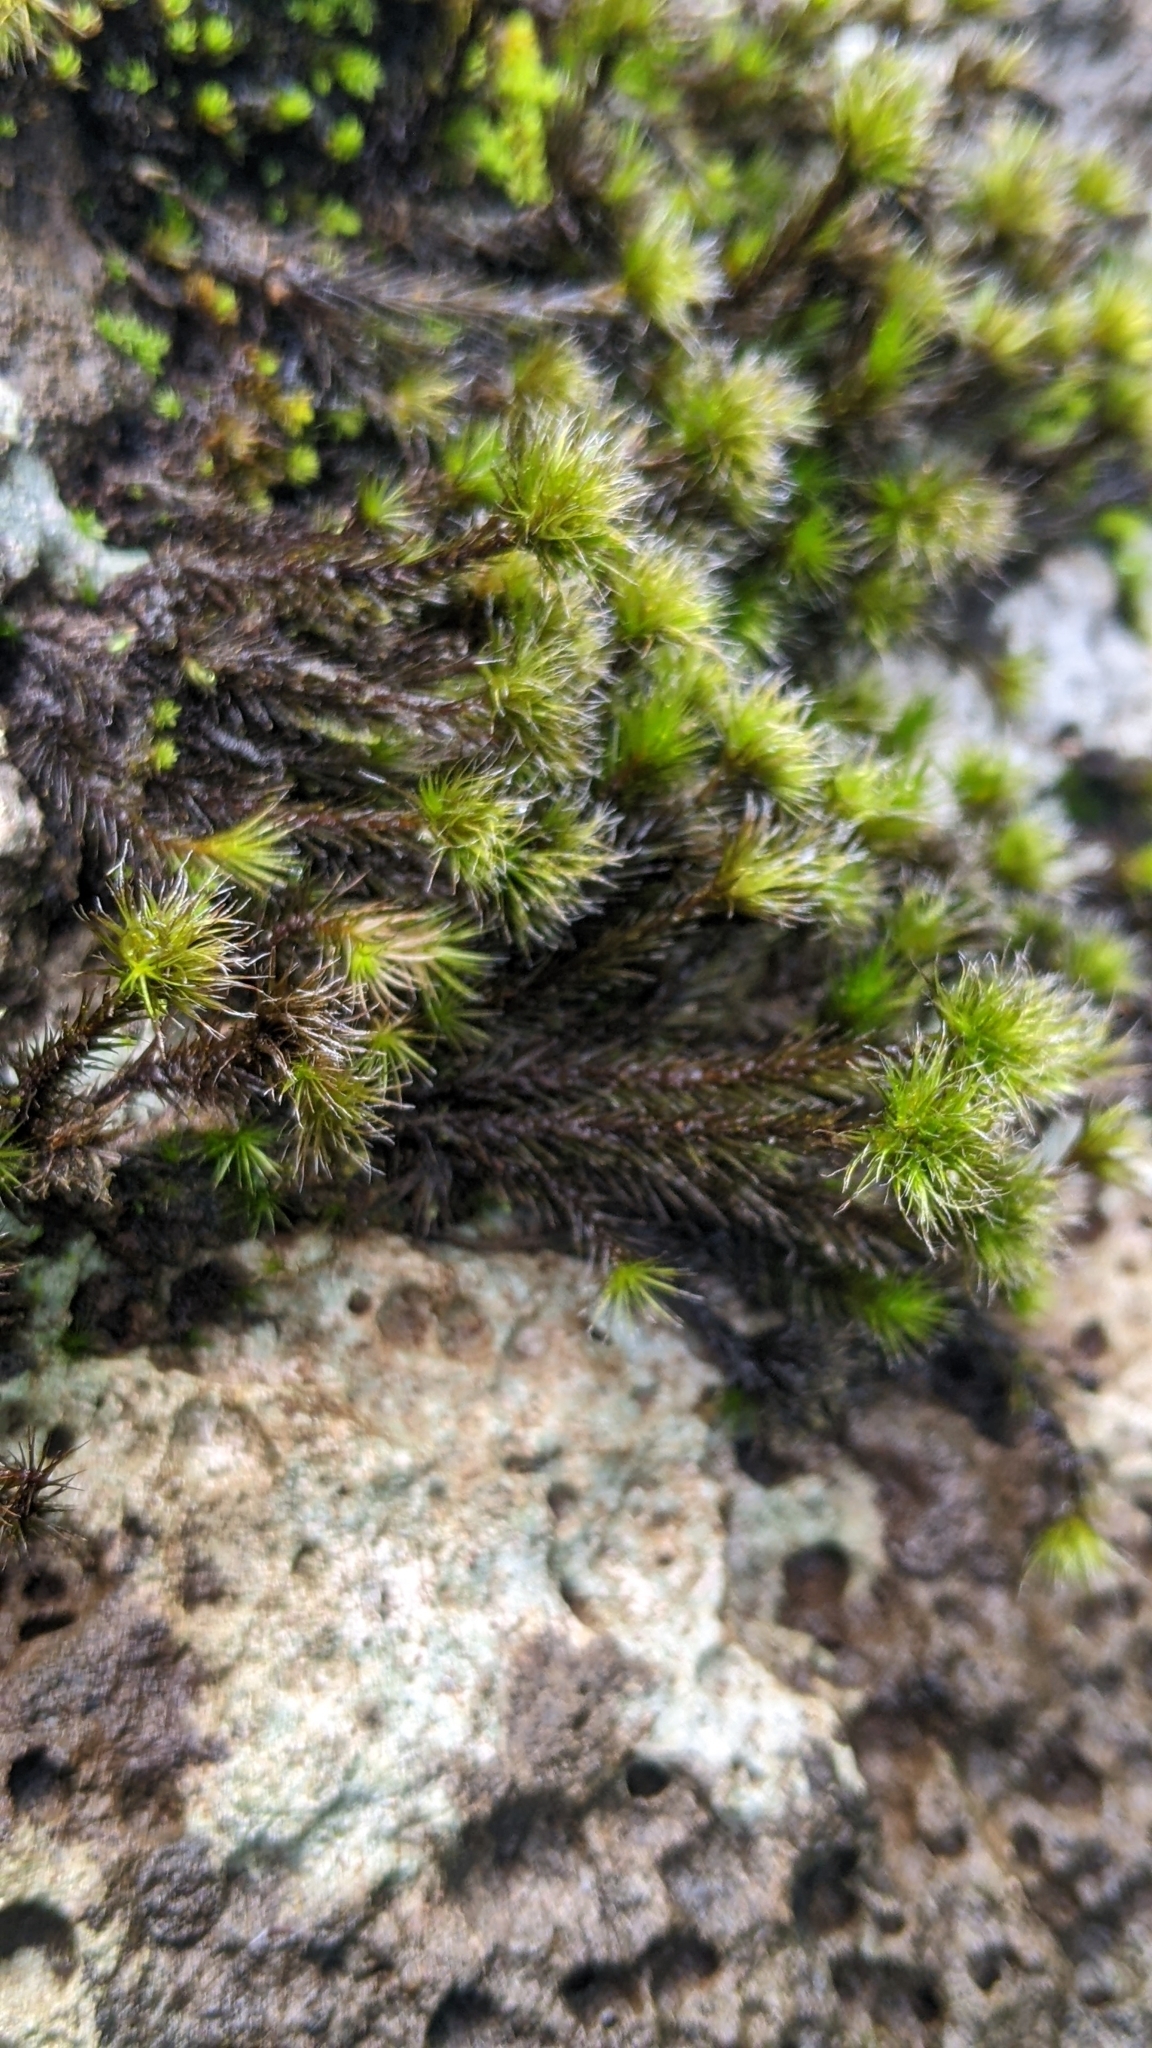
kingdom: Plantae
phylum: Bryophyta
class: Bryopsida
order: Dicranales
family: Leucobryaceae
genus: Campylopus
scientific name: Campylopus umbellatus
